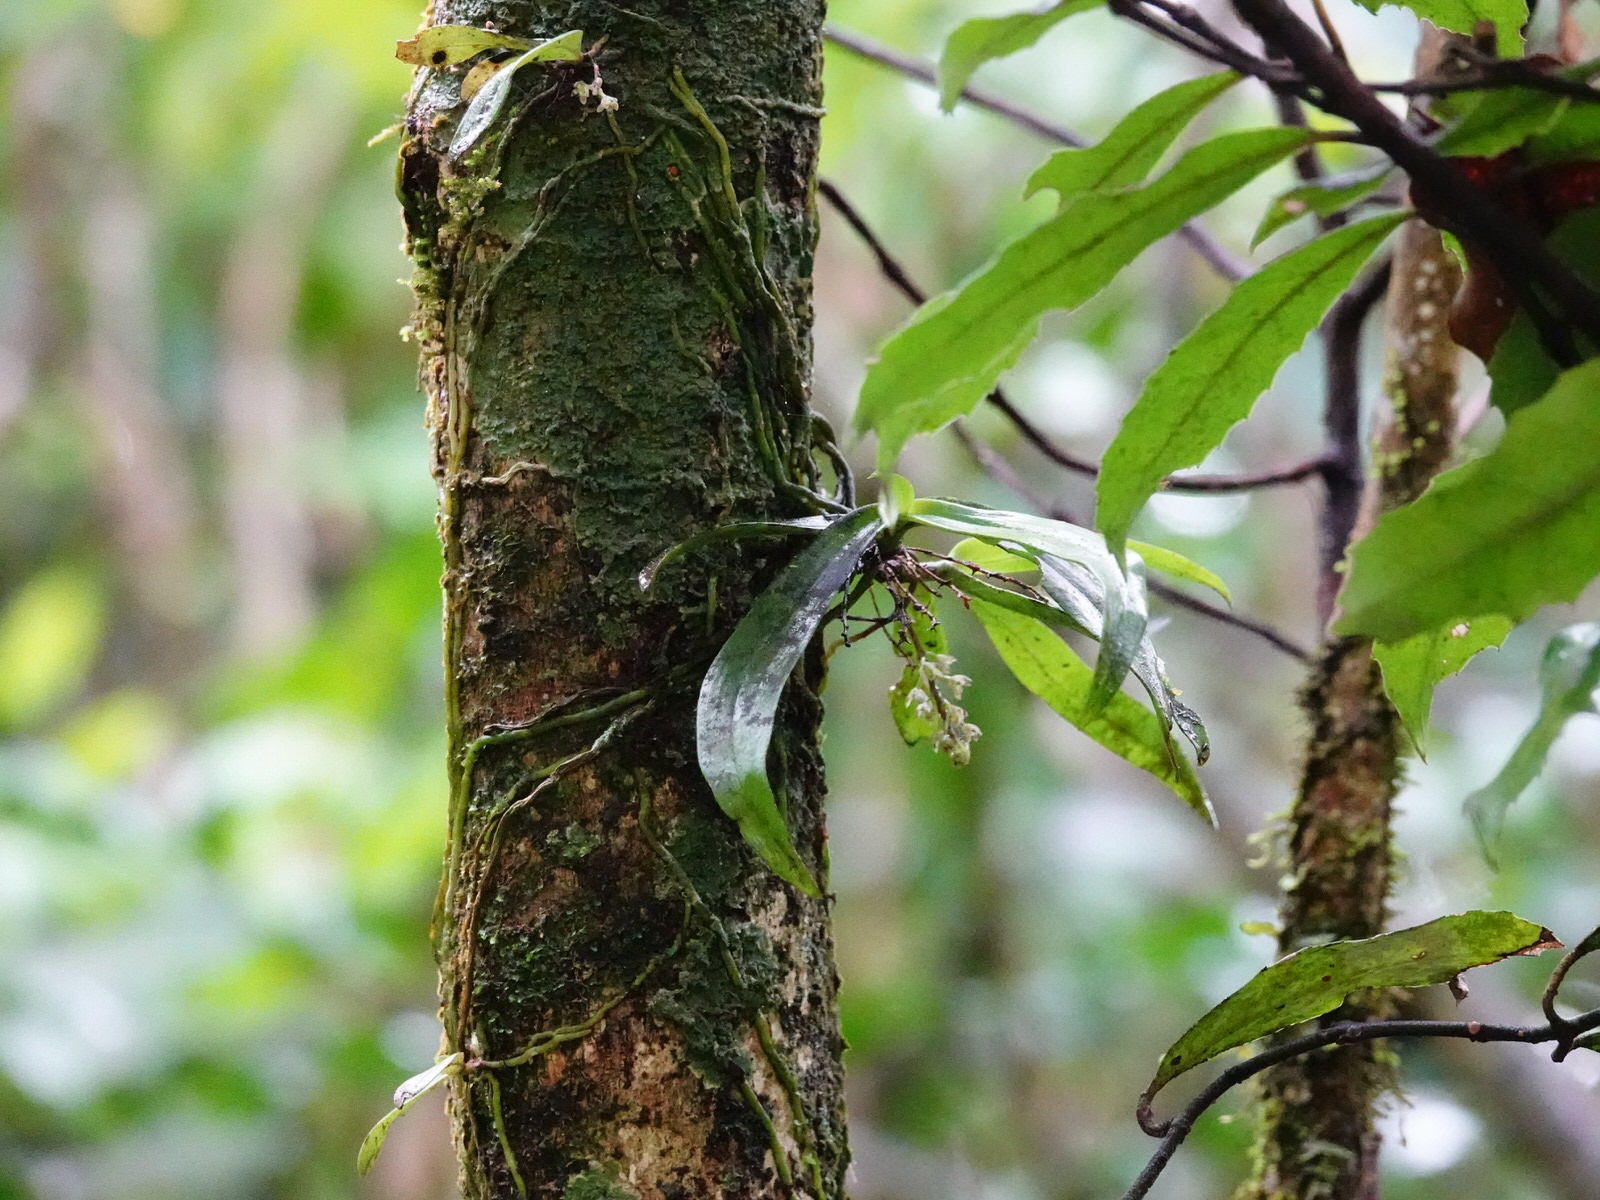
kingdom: Plantae
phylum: Tracheophyta
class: Liliopsida
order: Asparagales
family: Orchidaceae
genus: Drymoanthus
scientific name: Drymoanthus adversus
